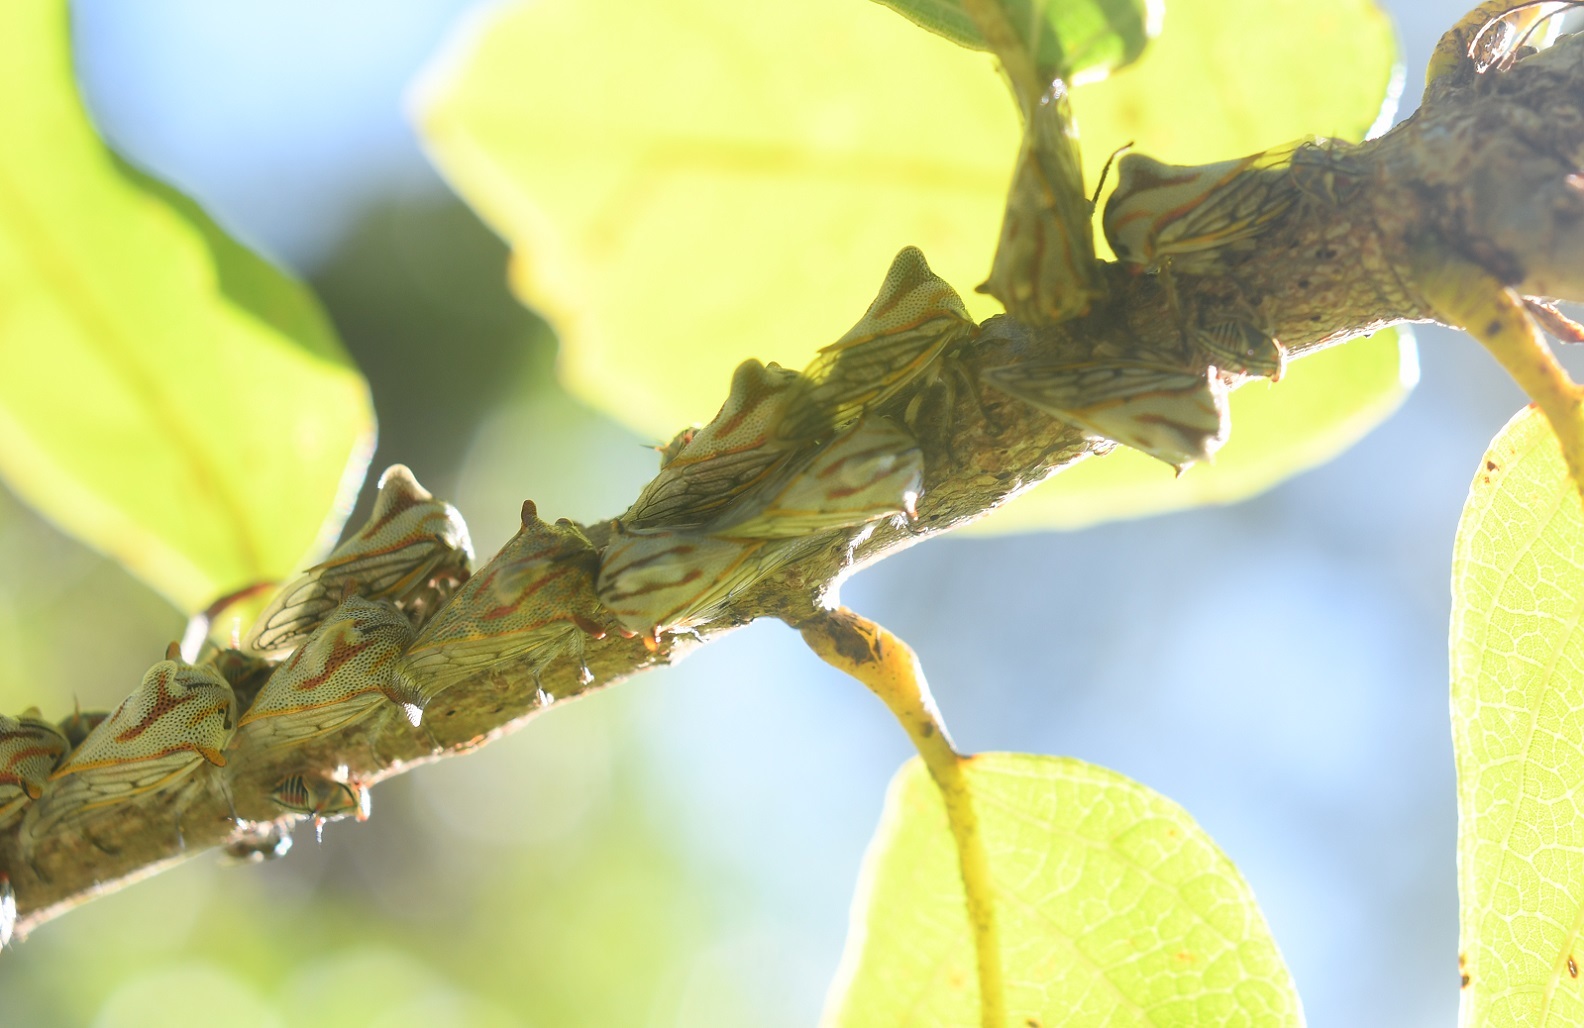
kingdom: Animalia
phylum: Arthropoda
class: Insecta
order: Hemiptera
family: Membracidae
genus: Platycotis
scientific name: Platycotis tuberculata
